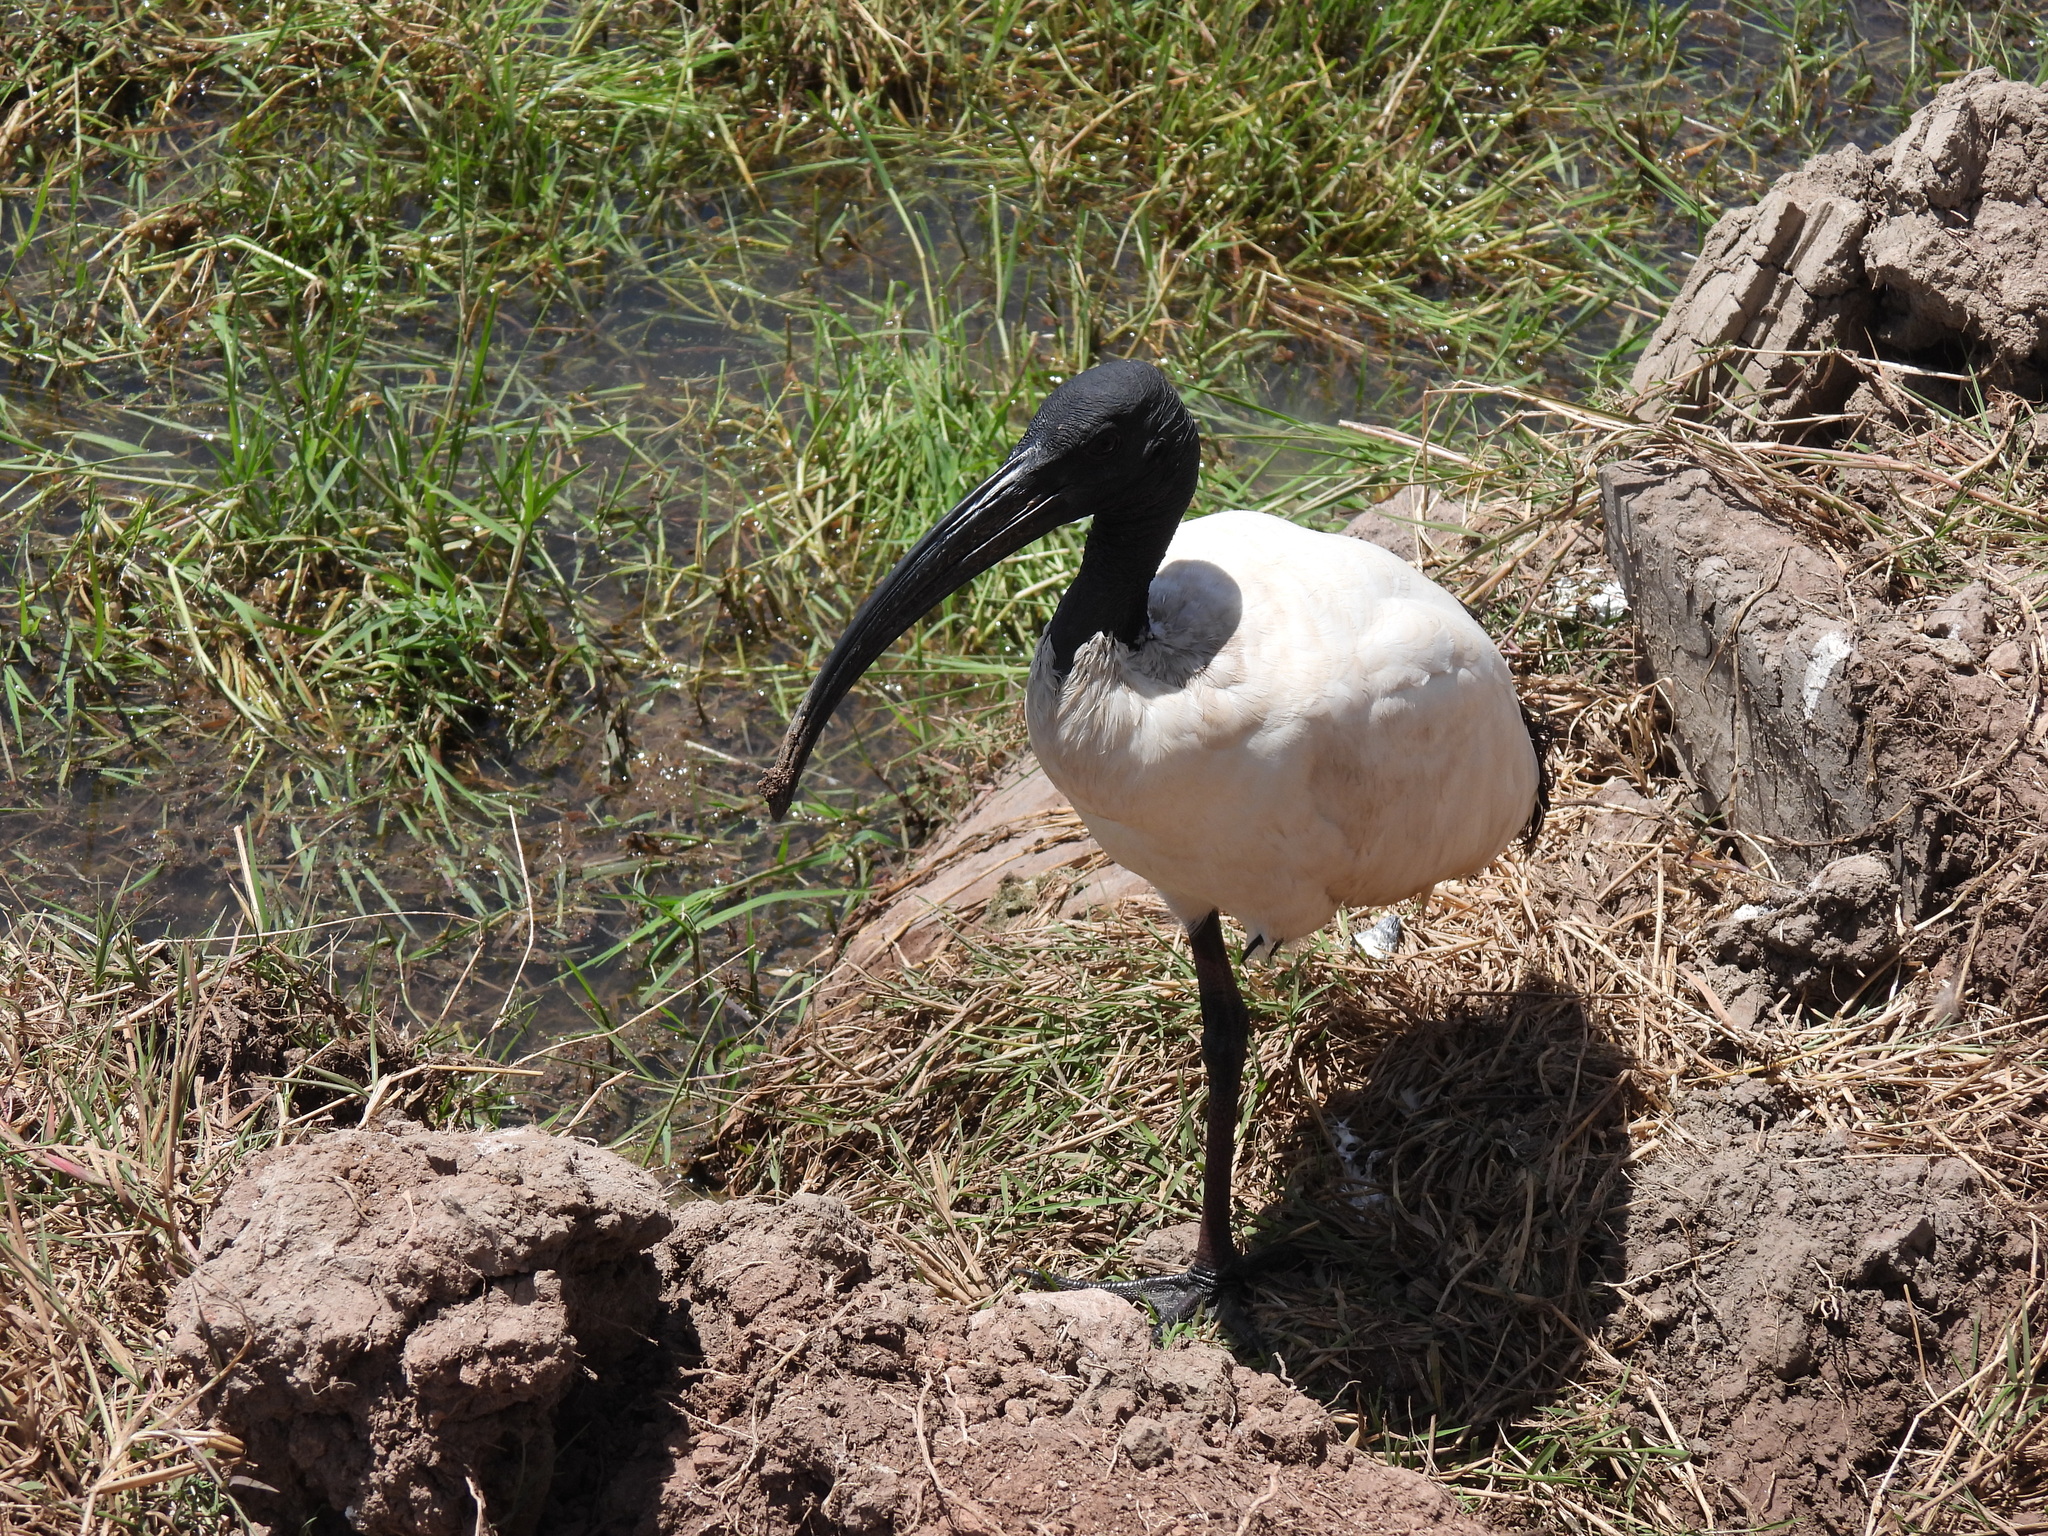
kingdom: Animalia
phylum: Chordata
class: Aves
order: Pelecaniformes
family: Threskiornithidae
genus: Threskiornis
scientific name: Threskiornis aethiopicus
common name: Sacred ibis
